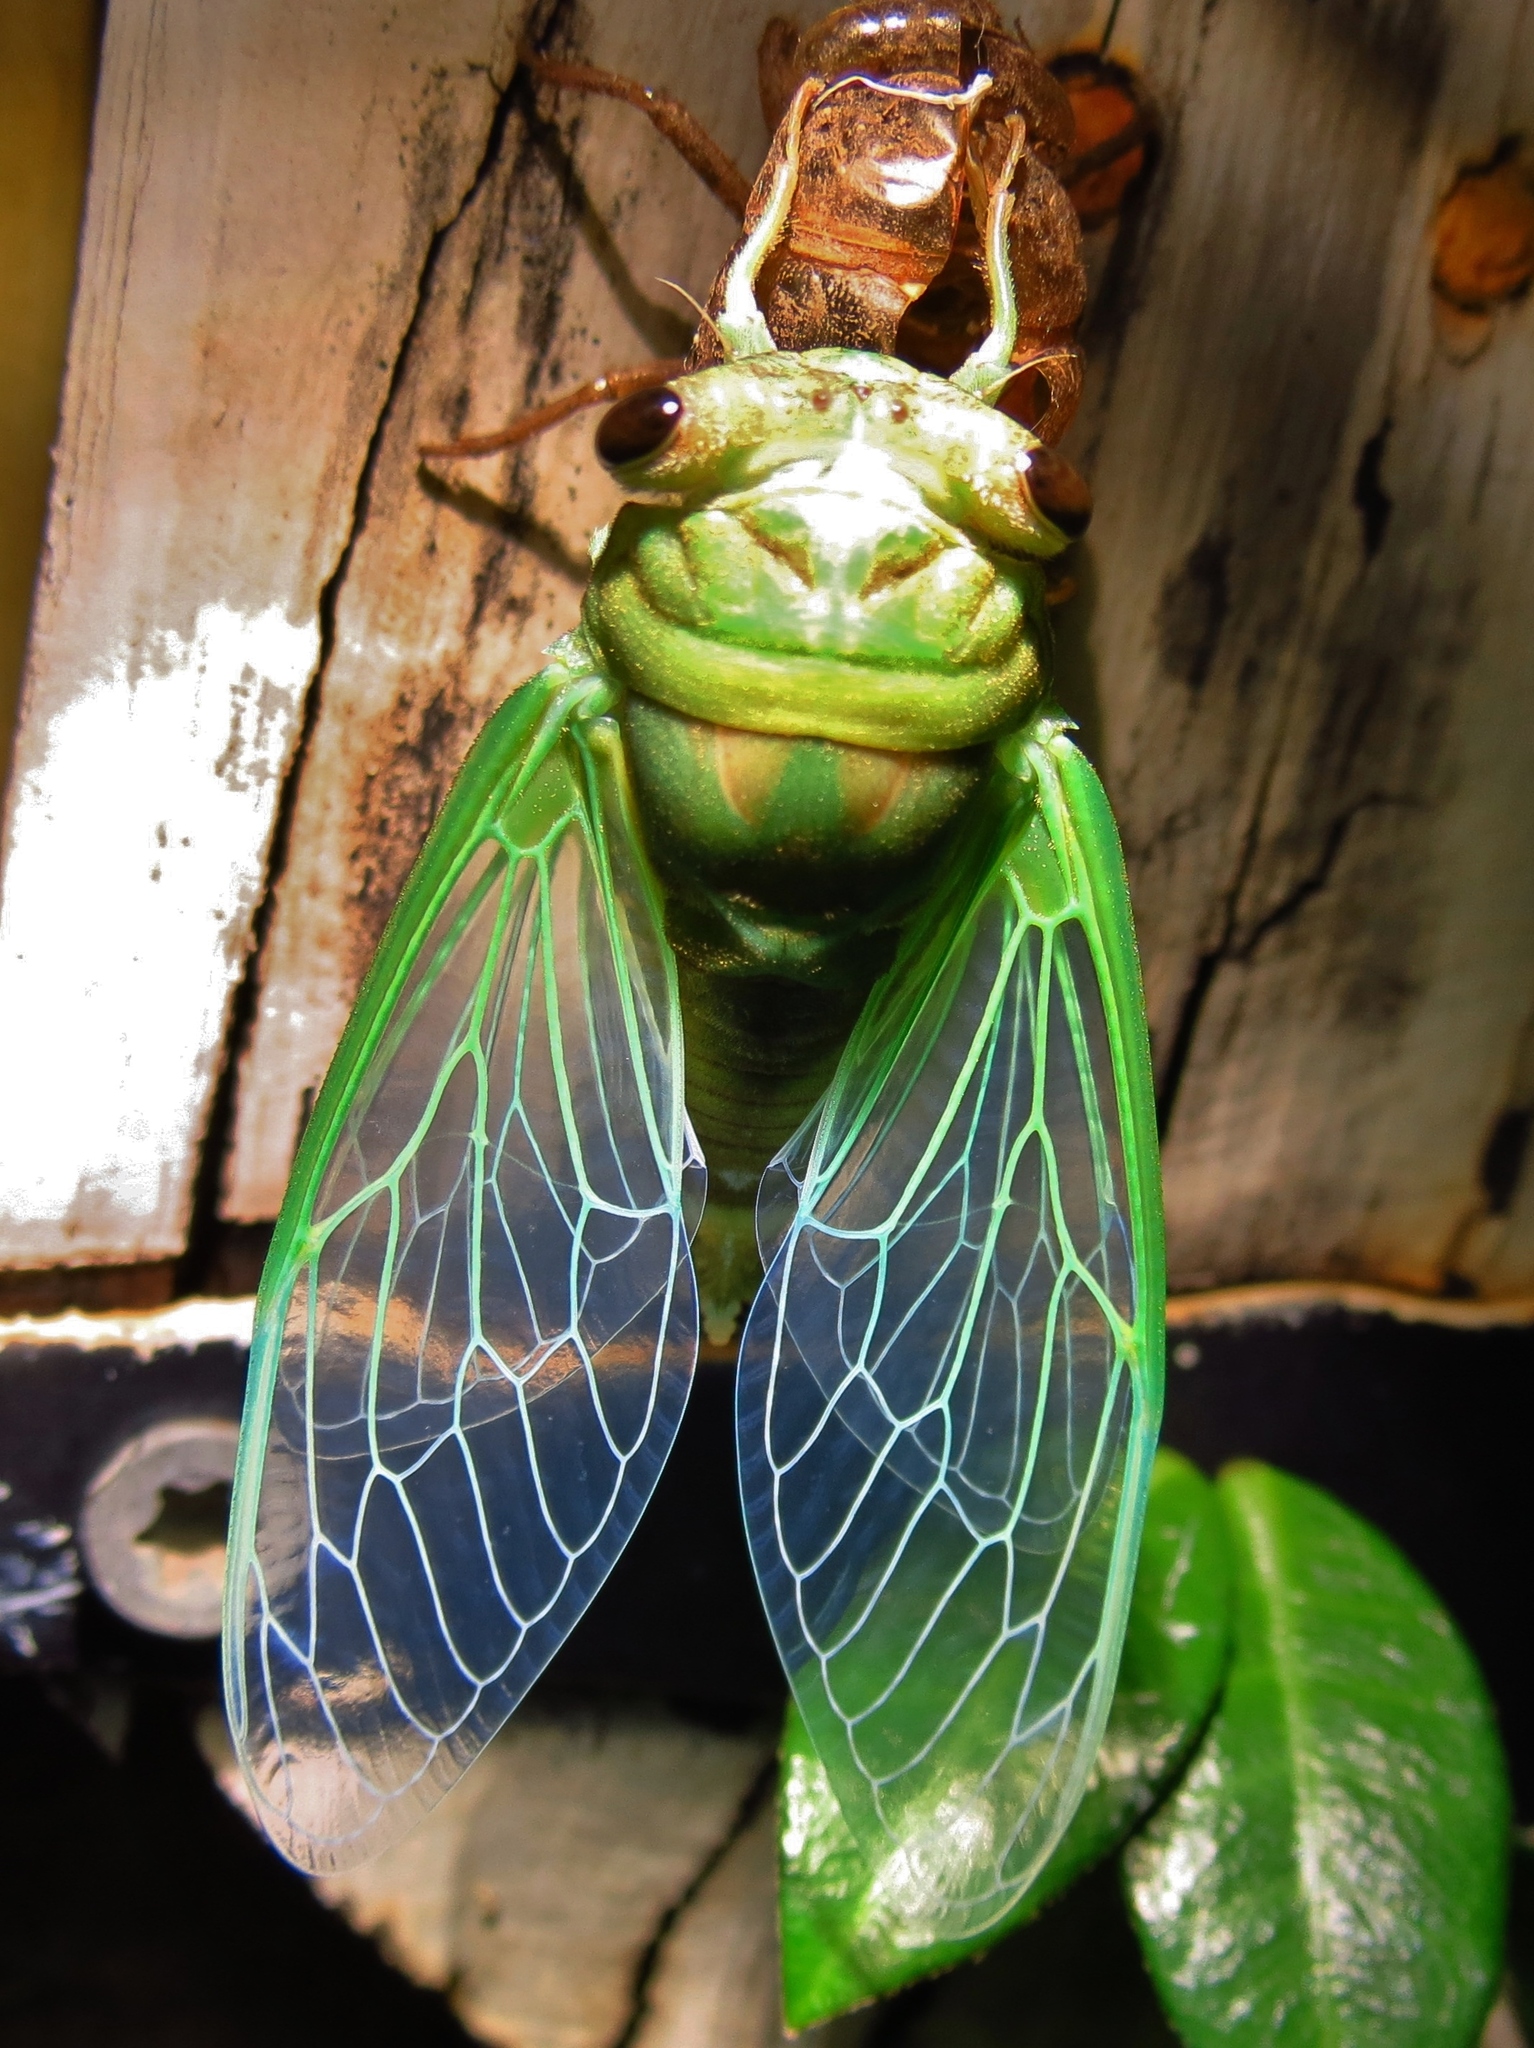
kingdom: Animalia
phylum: Arthropoda
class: Insecta
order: Hemiptera
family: Cicadidae
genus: Neotibicen
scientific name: Neotibicen superbus
